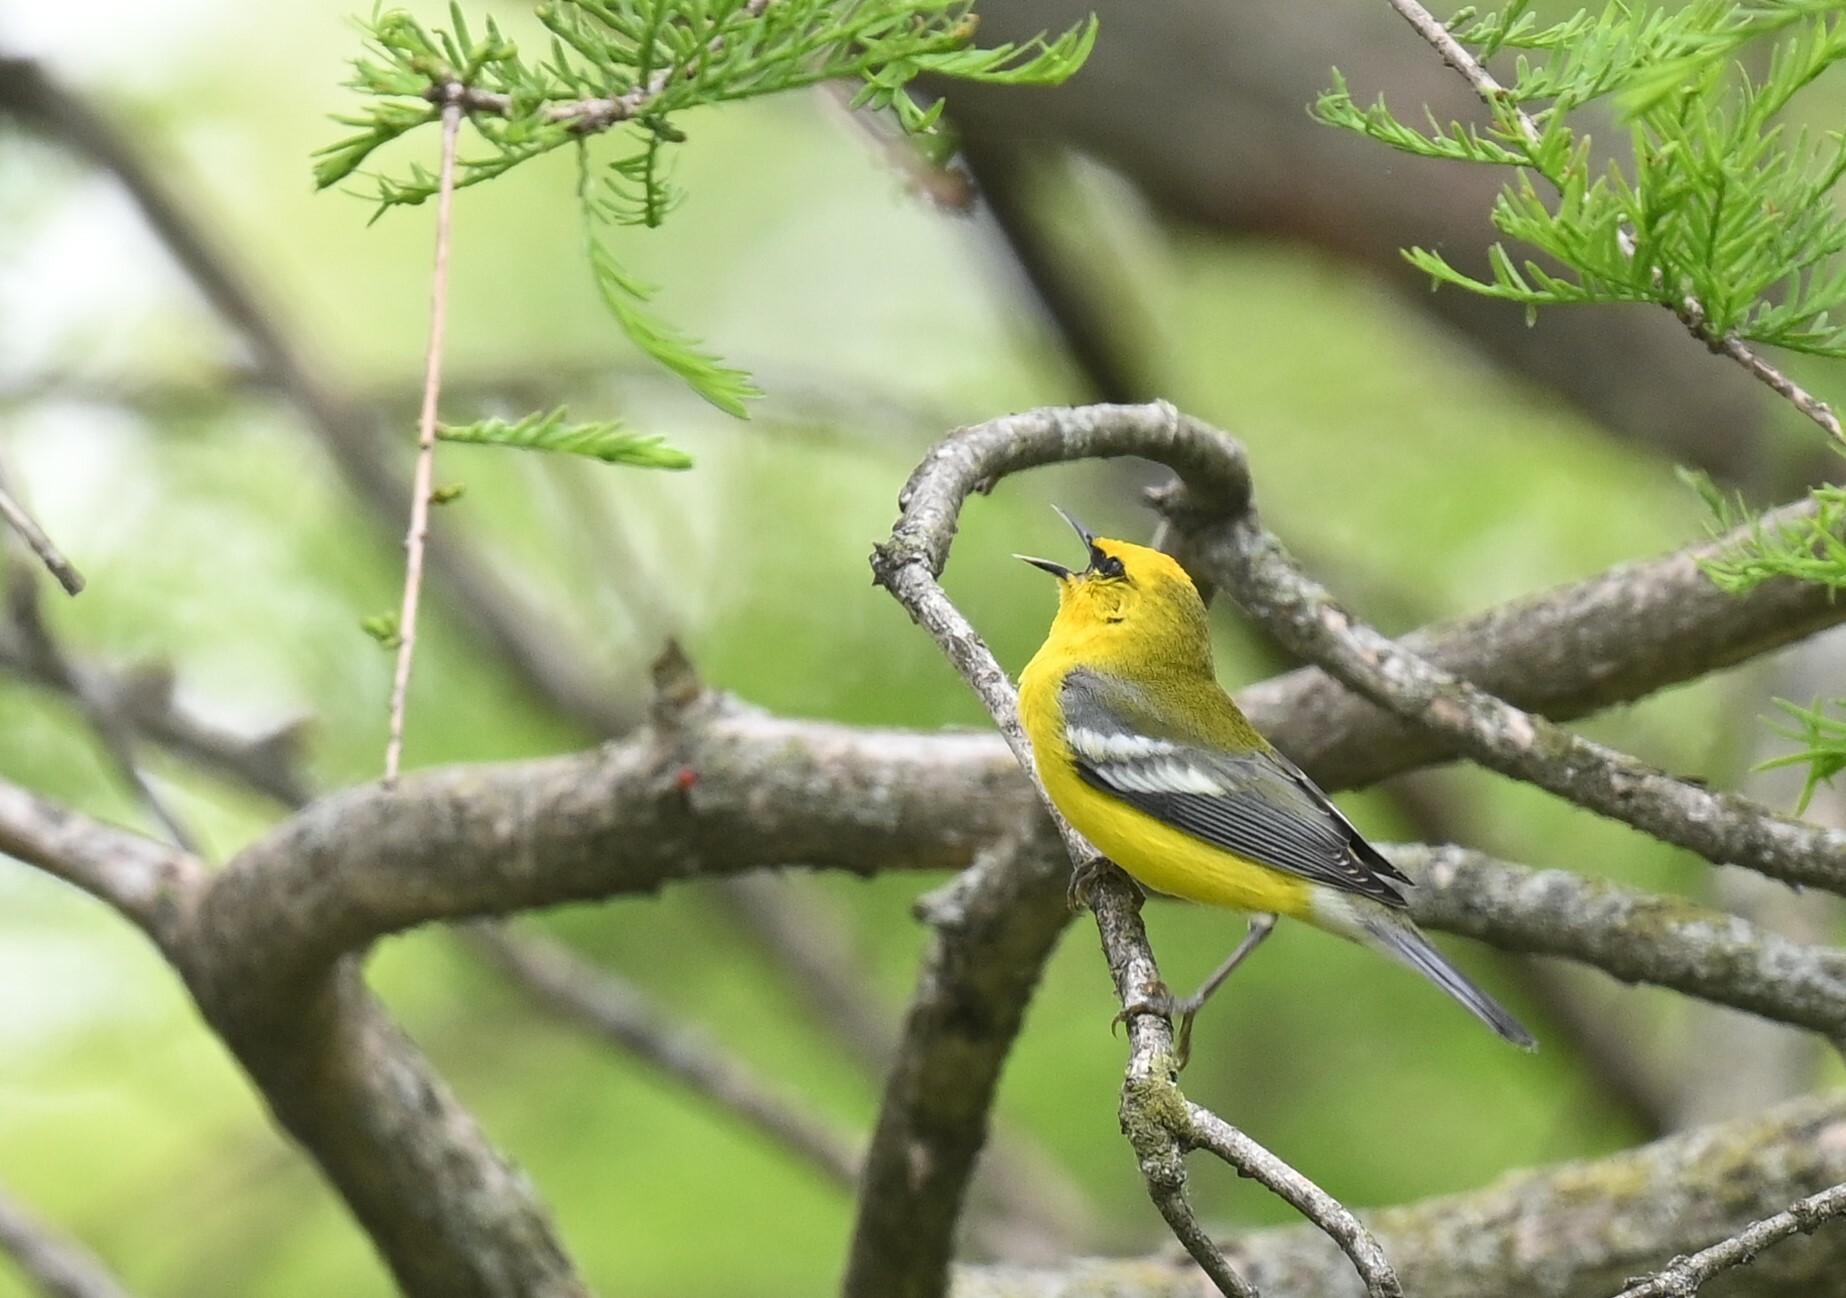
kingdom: Animalia
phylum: Chordata
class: Aves
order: Passeriformes
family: Parulidae
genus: Vermivora
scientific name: Vermivora cyanoptera
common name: Blue-winged warbler
